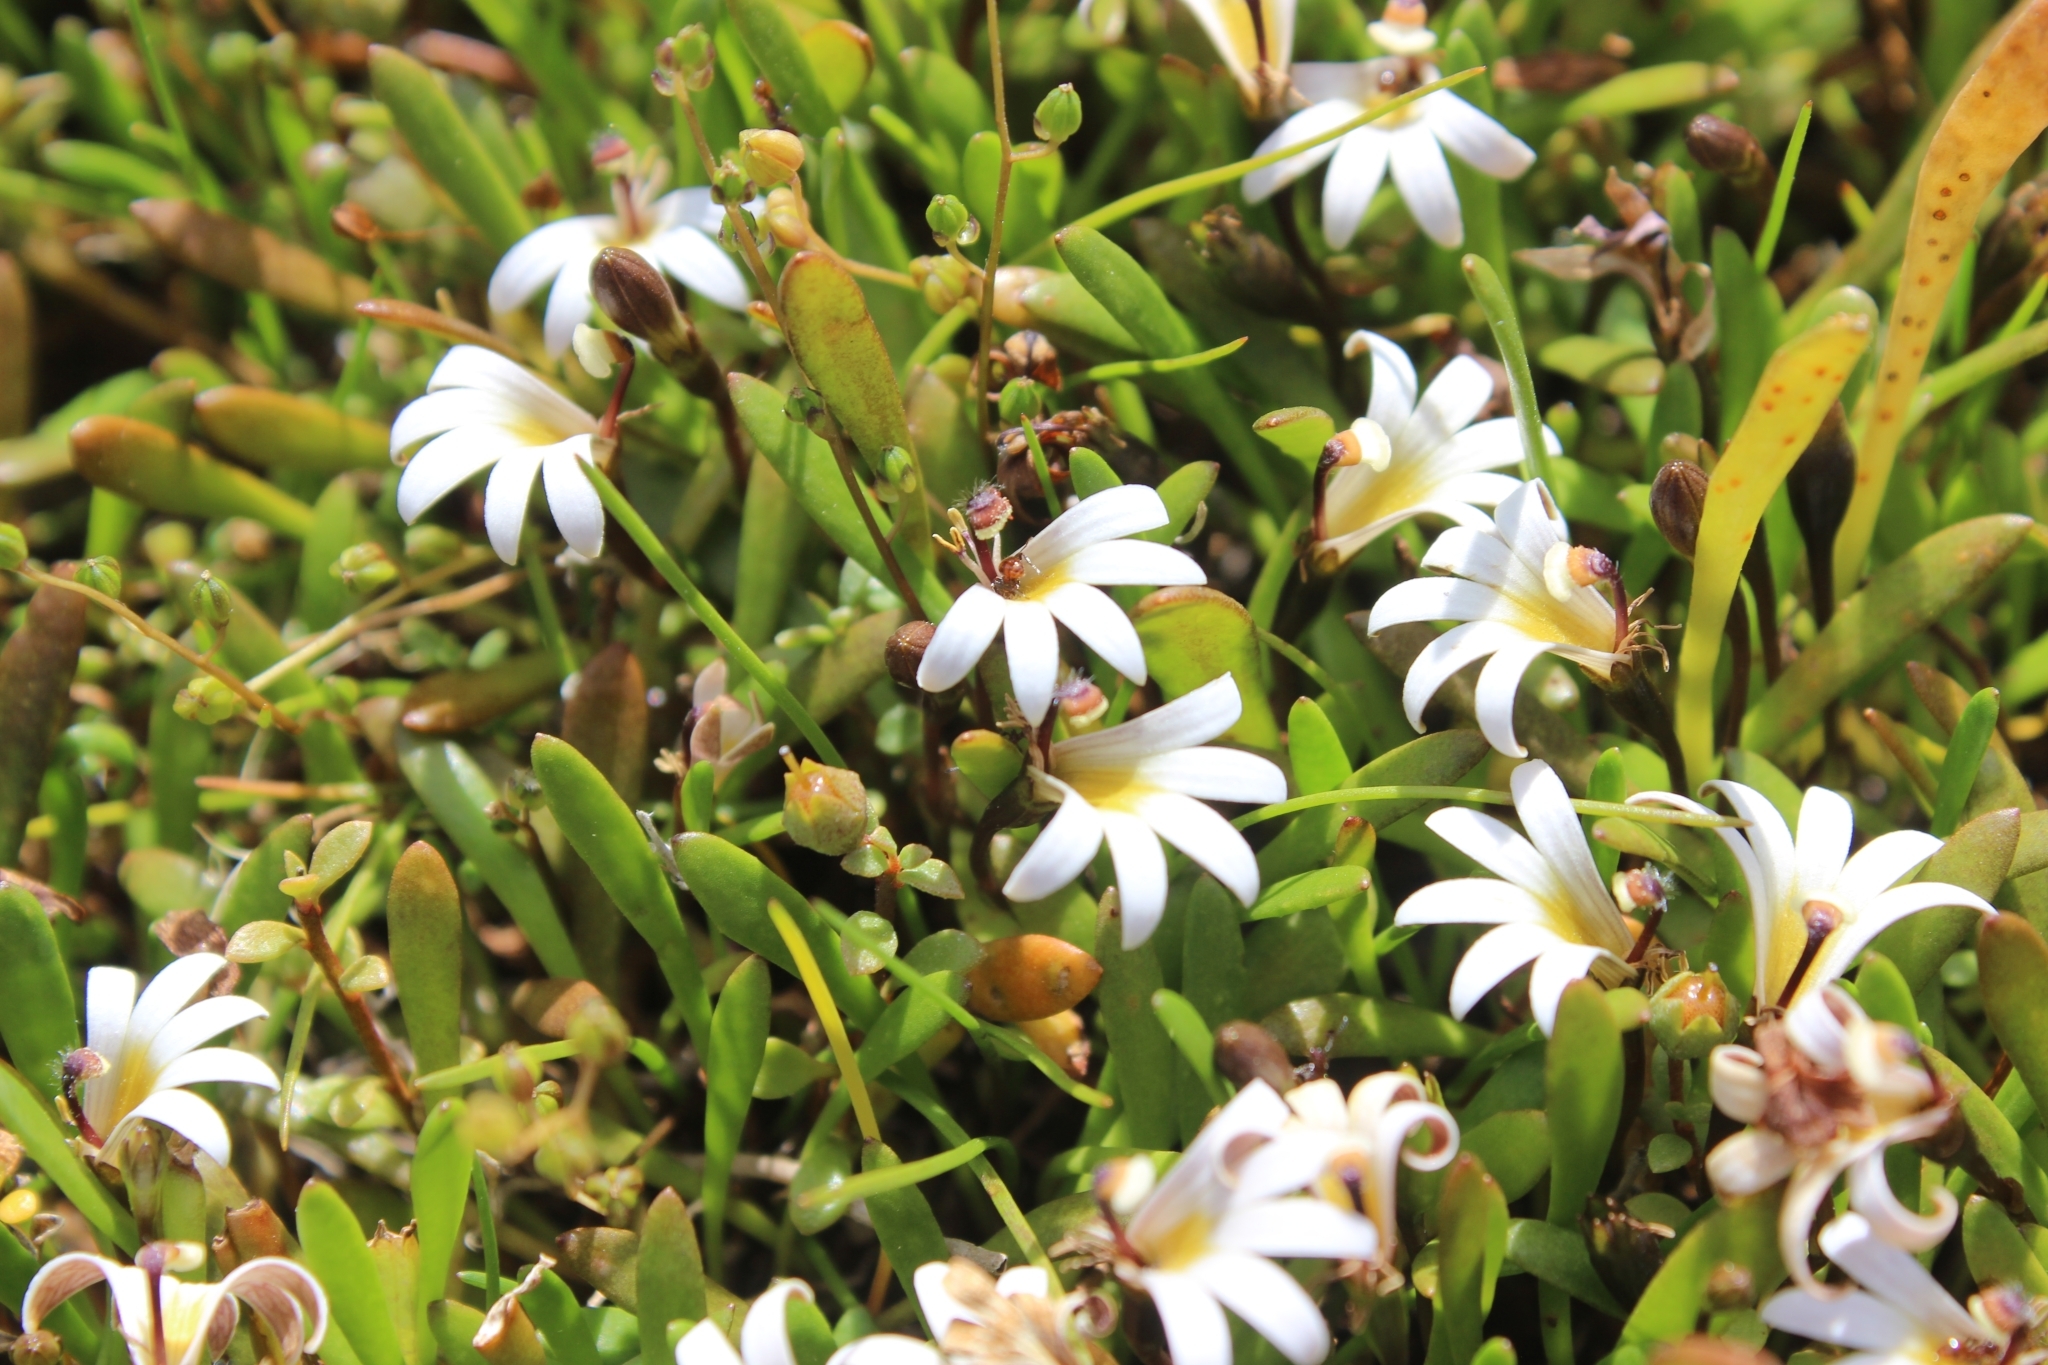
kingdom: Plantae
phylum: Tracheophyta
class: Magnoliopsida
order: Asterales
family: Goodeniaceae
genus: Goodenia
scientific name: Goodenia radicans
